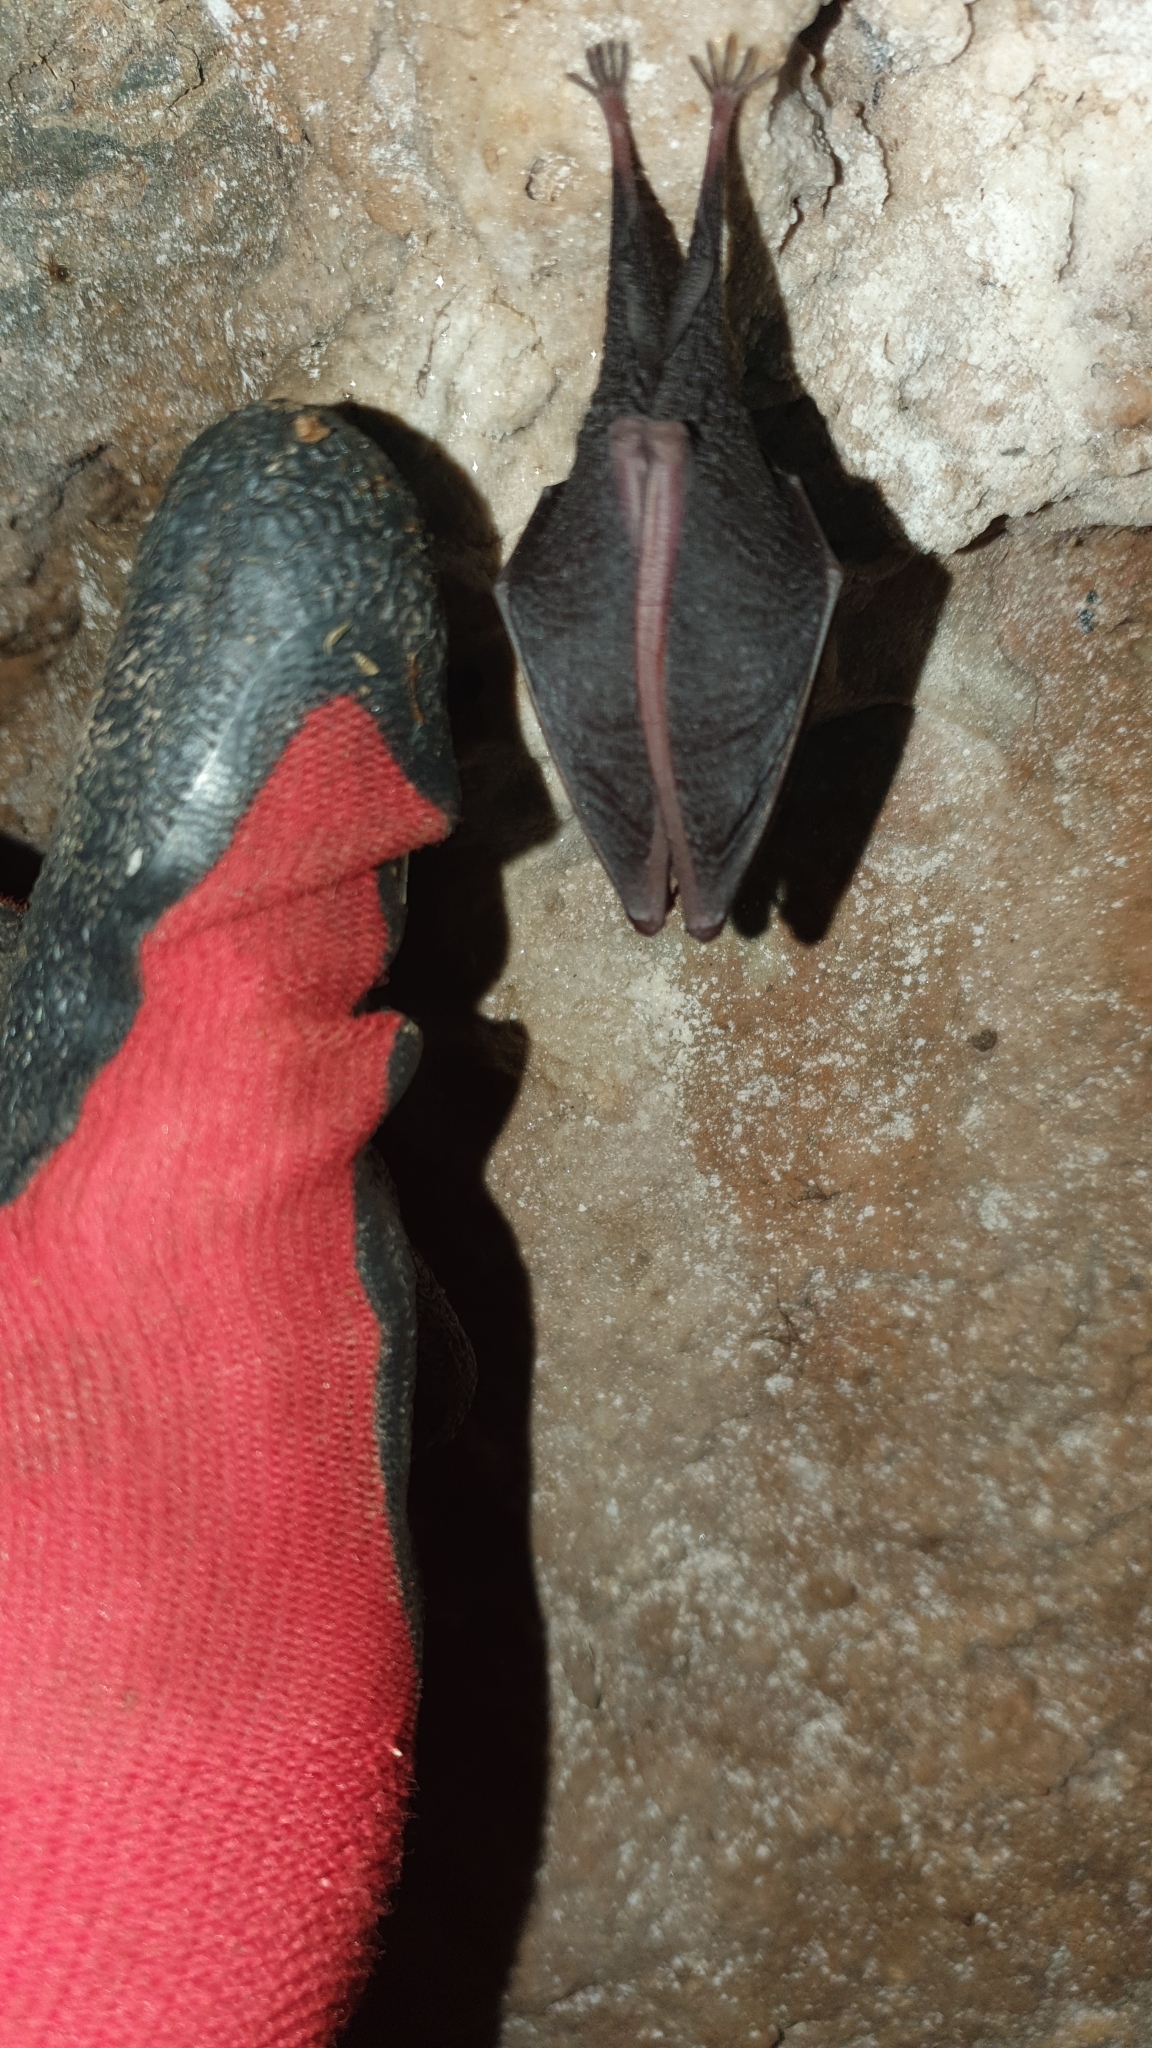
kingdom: Animalia
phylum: Chordata
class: Mammalia
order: Chiroptera
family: Rhinolophidae
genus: Rhinolophus
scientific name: Rhinolophus hipposideros
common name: Lesser horseshoe bat
